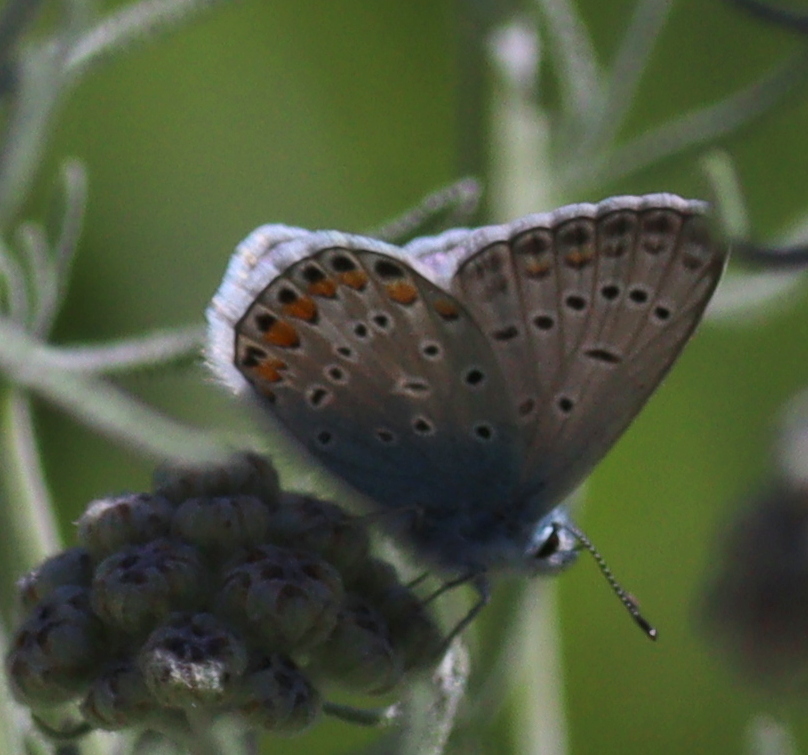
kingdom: Animalia
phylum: Arthropoda
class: Insecta
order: Lepidoptera
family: Lycaenidae
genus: Polyommatus
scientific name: Polyommatus icarus
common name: Common blue
